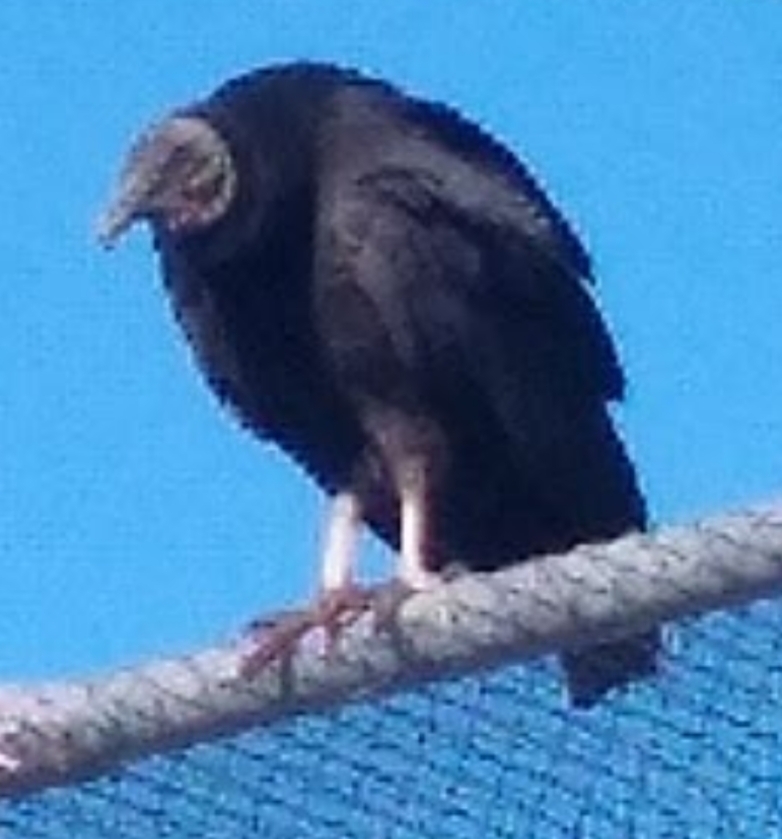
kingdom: Animalia
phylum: Chordata
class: Aves
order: Accipitriformes
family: Cathartidae
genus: Coragyps
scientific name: Coragyps atratus
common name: Black vulture
